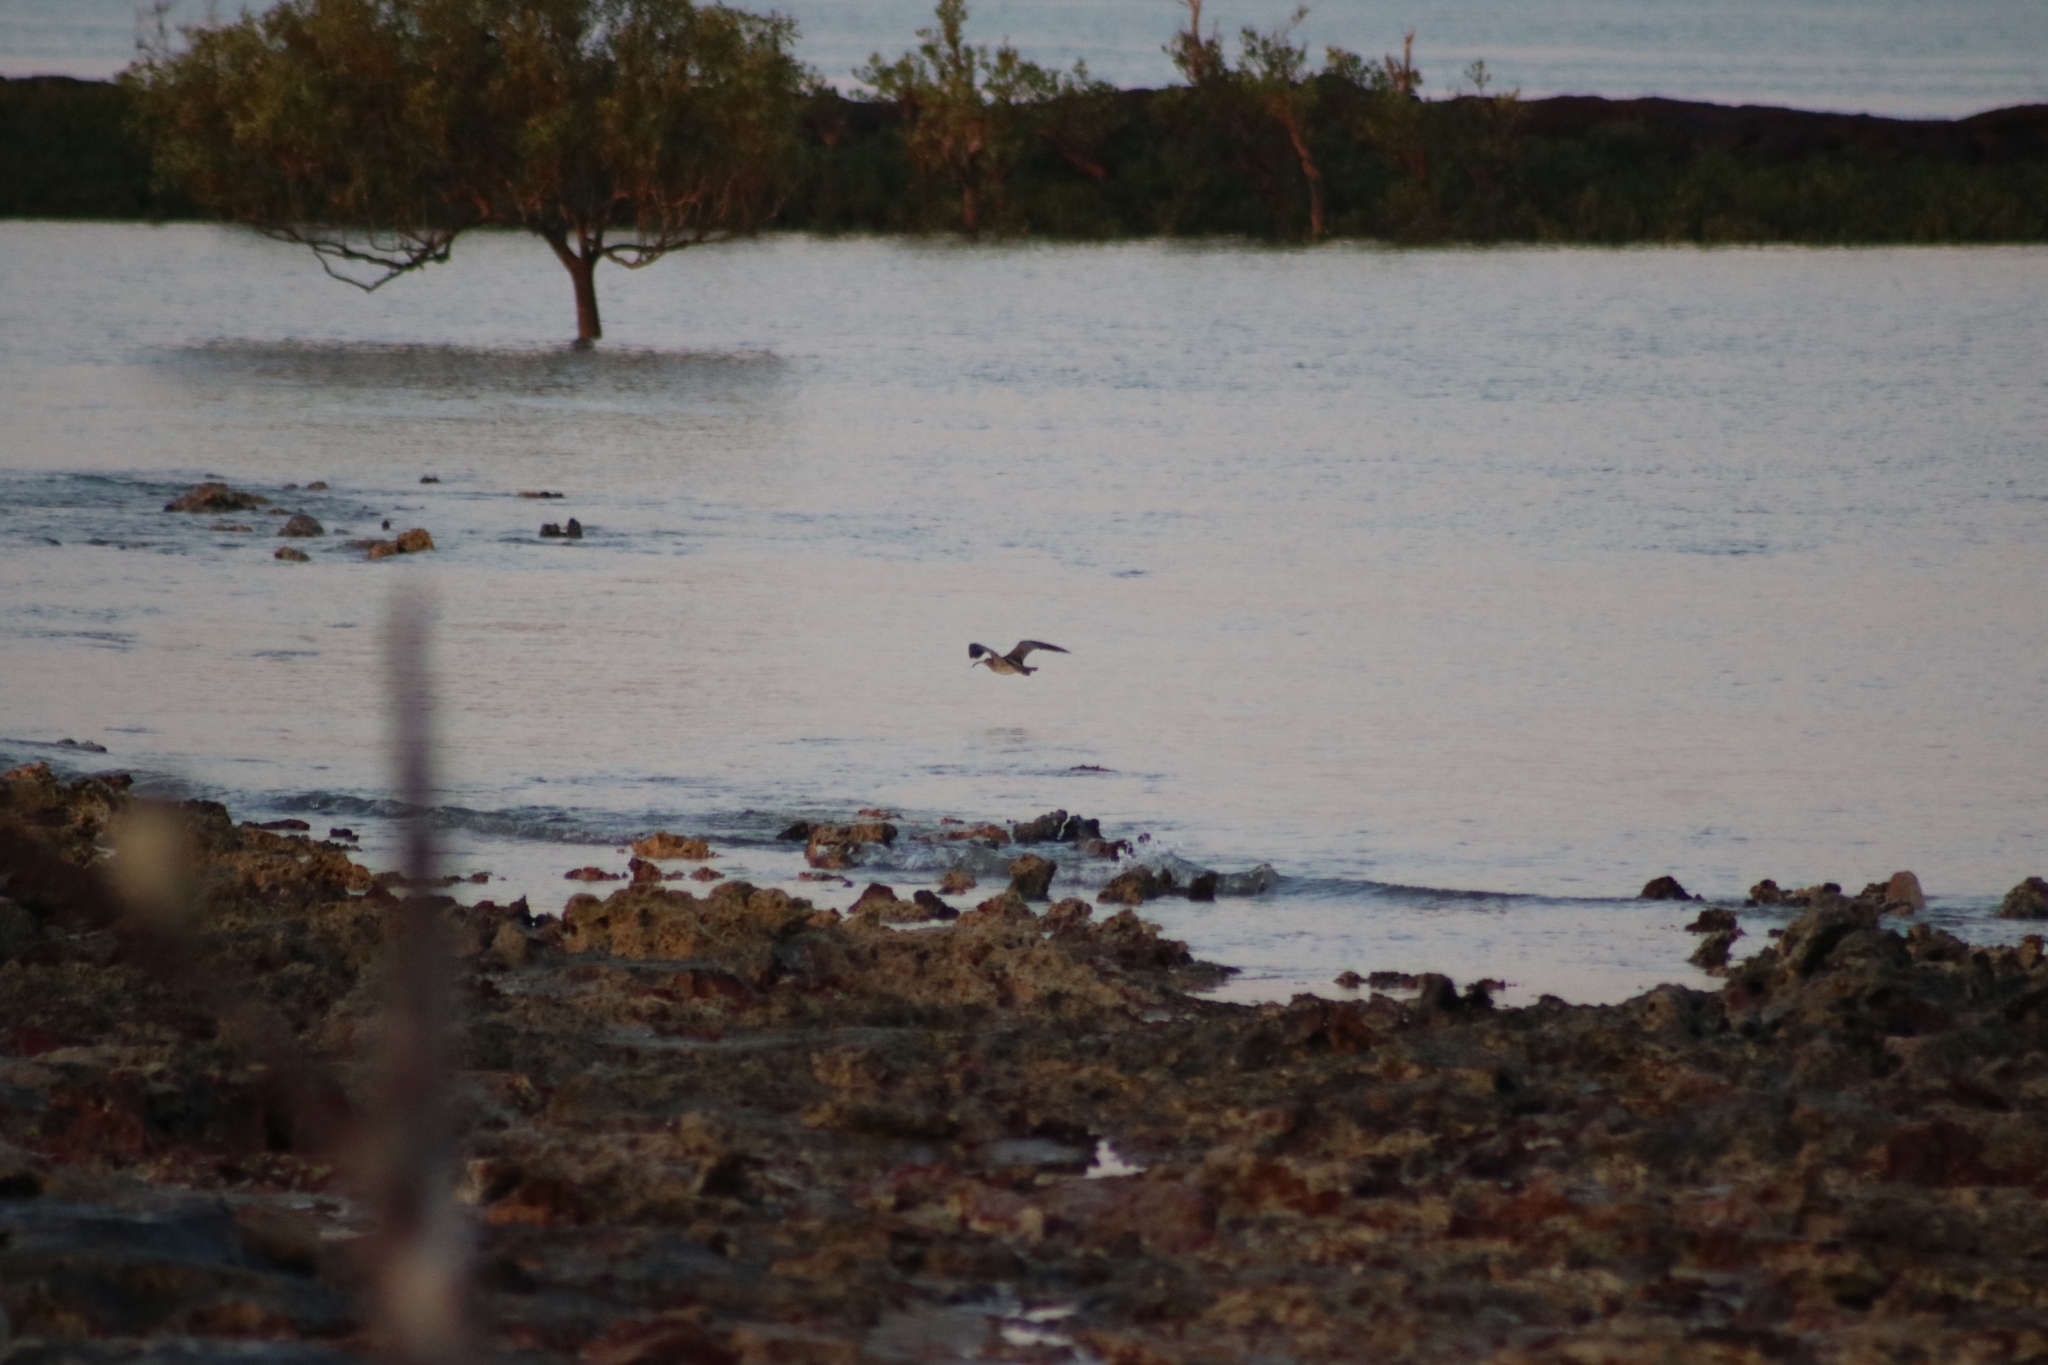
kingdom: Animalia
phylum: Chordata
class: Aves
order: Charadriiformes
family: Scolopacidae
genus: Numenius
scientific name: Numenius phaeopus
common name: Whimbrel
